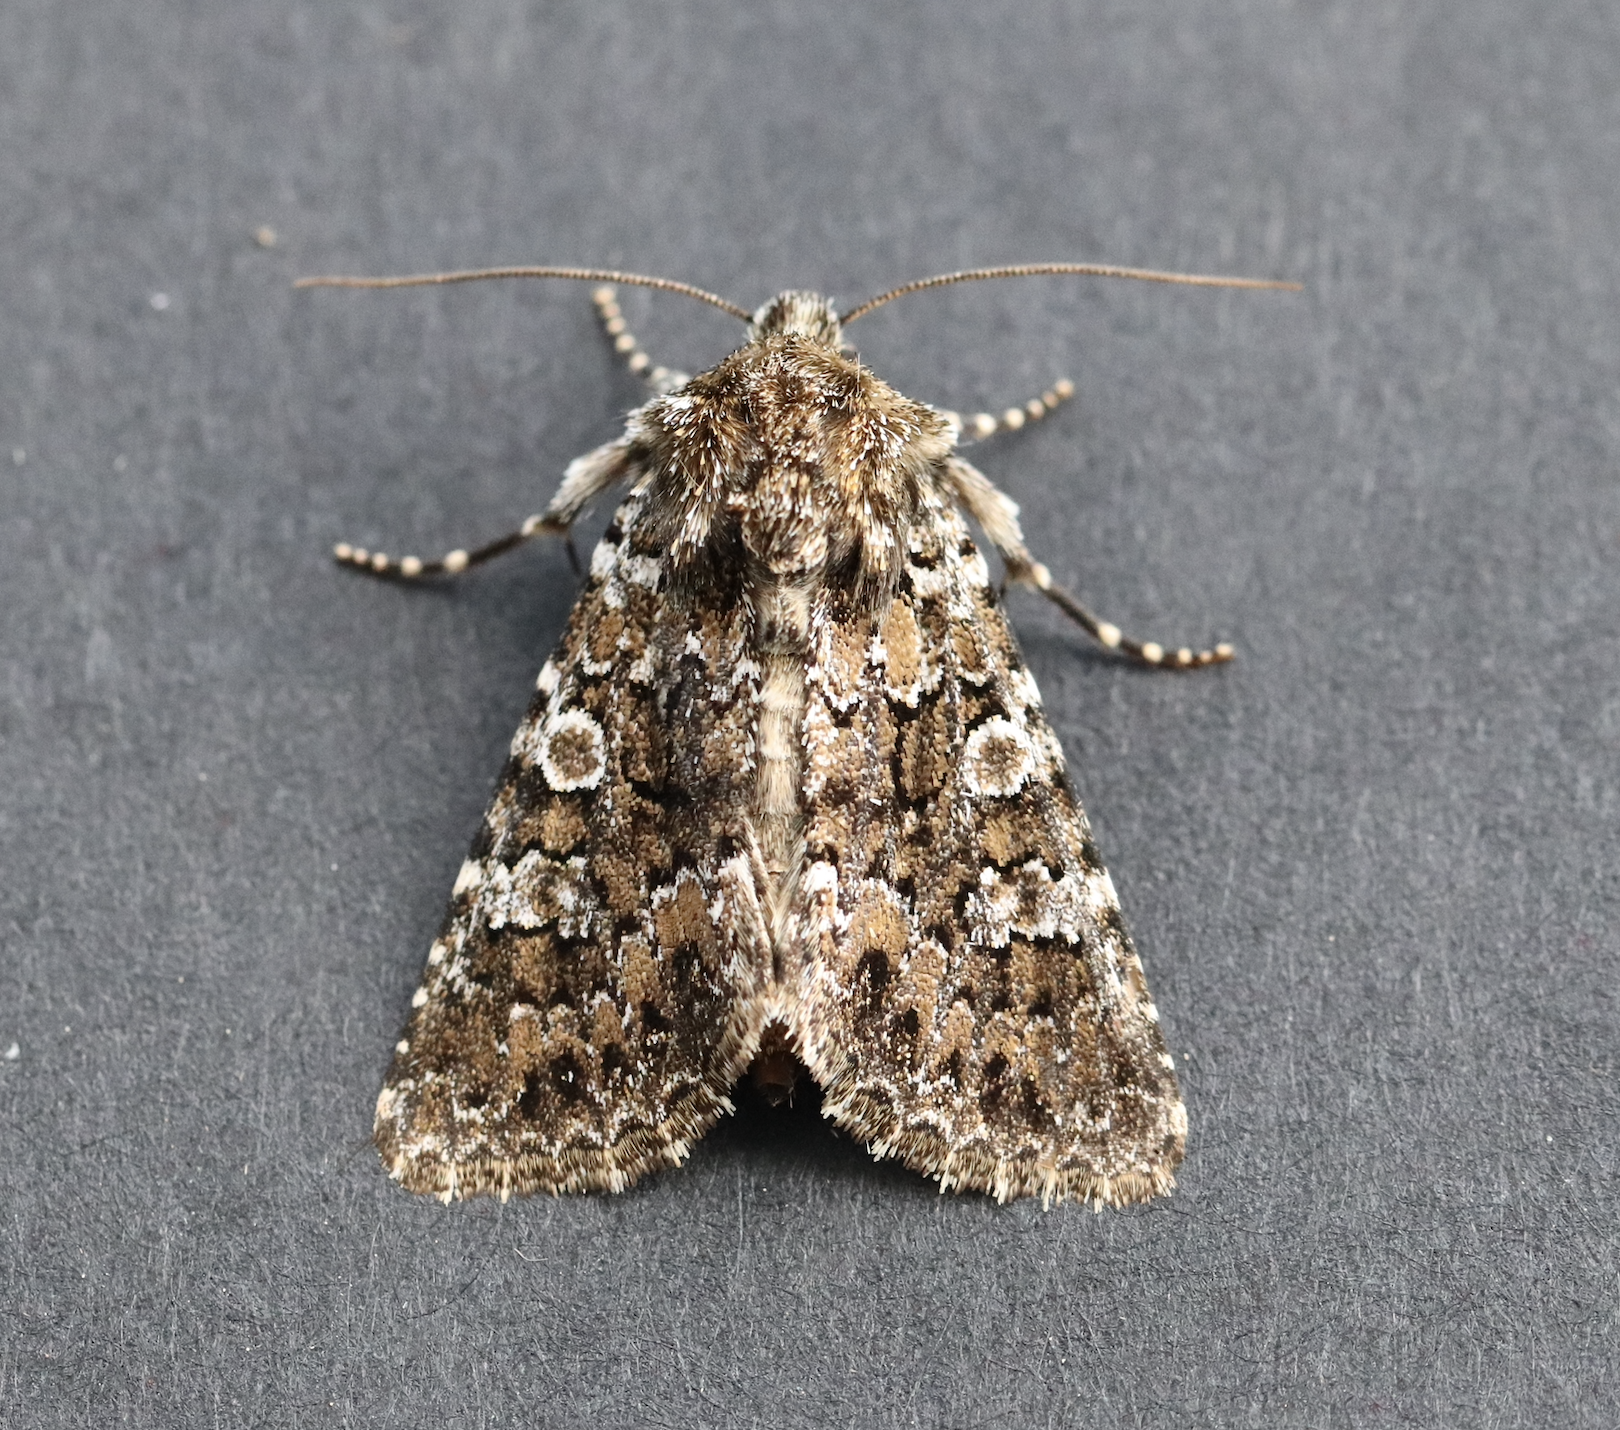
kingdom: Animalia
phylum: Arthropoda
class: Insecta
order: Lepidoptera
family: Noctuidae
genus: Hadena
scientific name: Hadena magnolii
